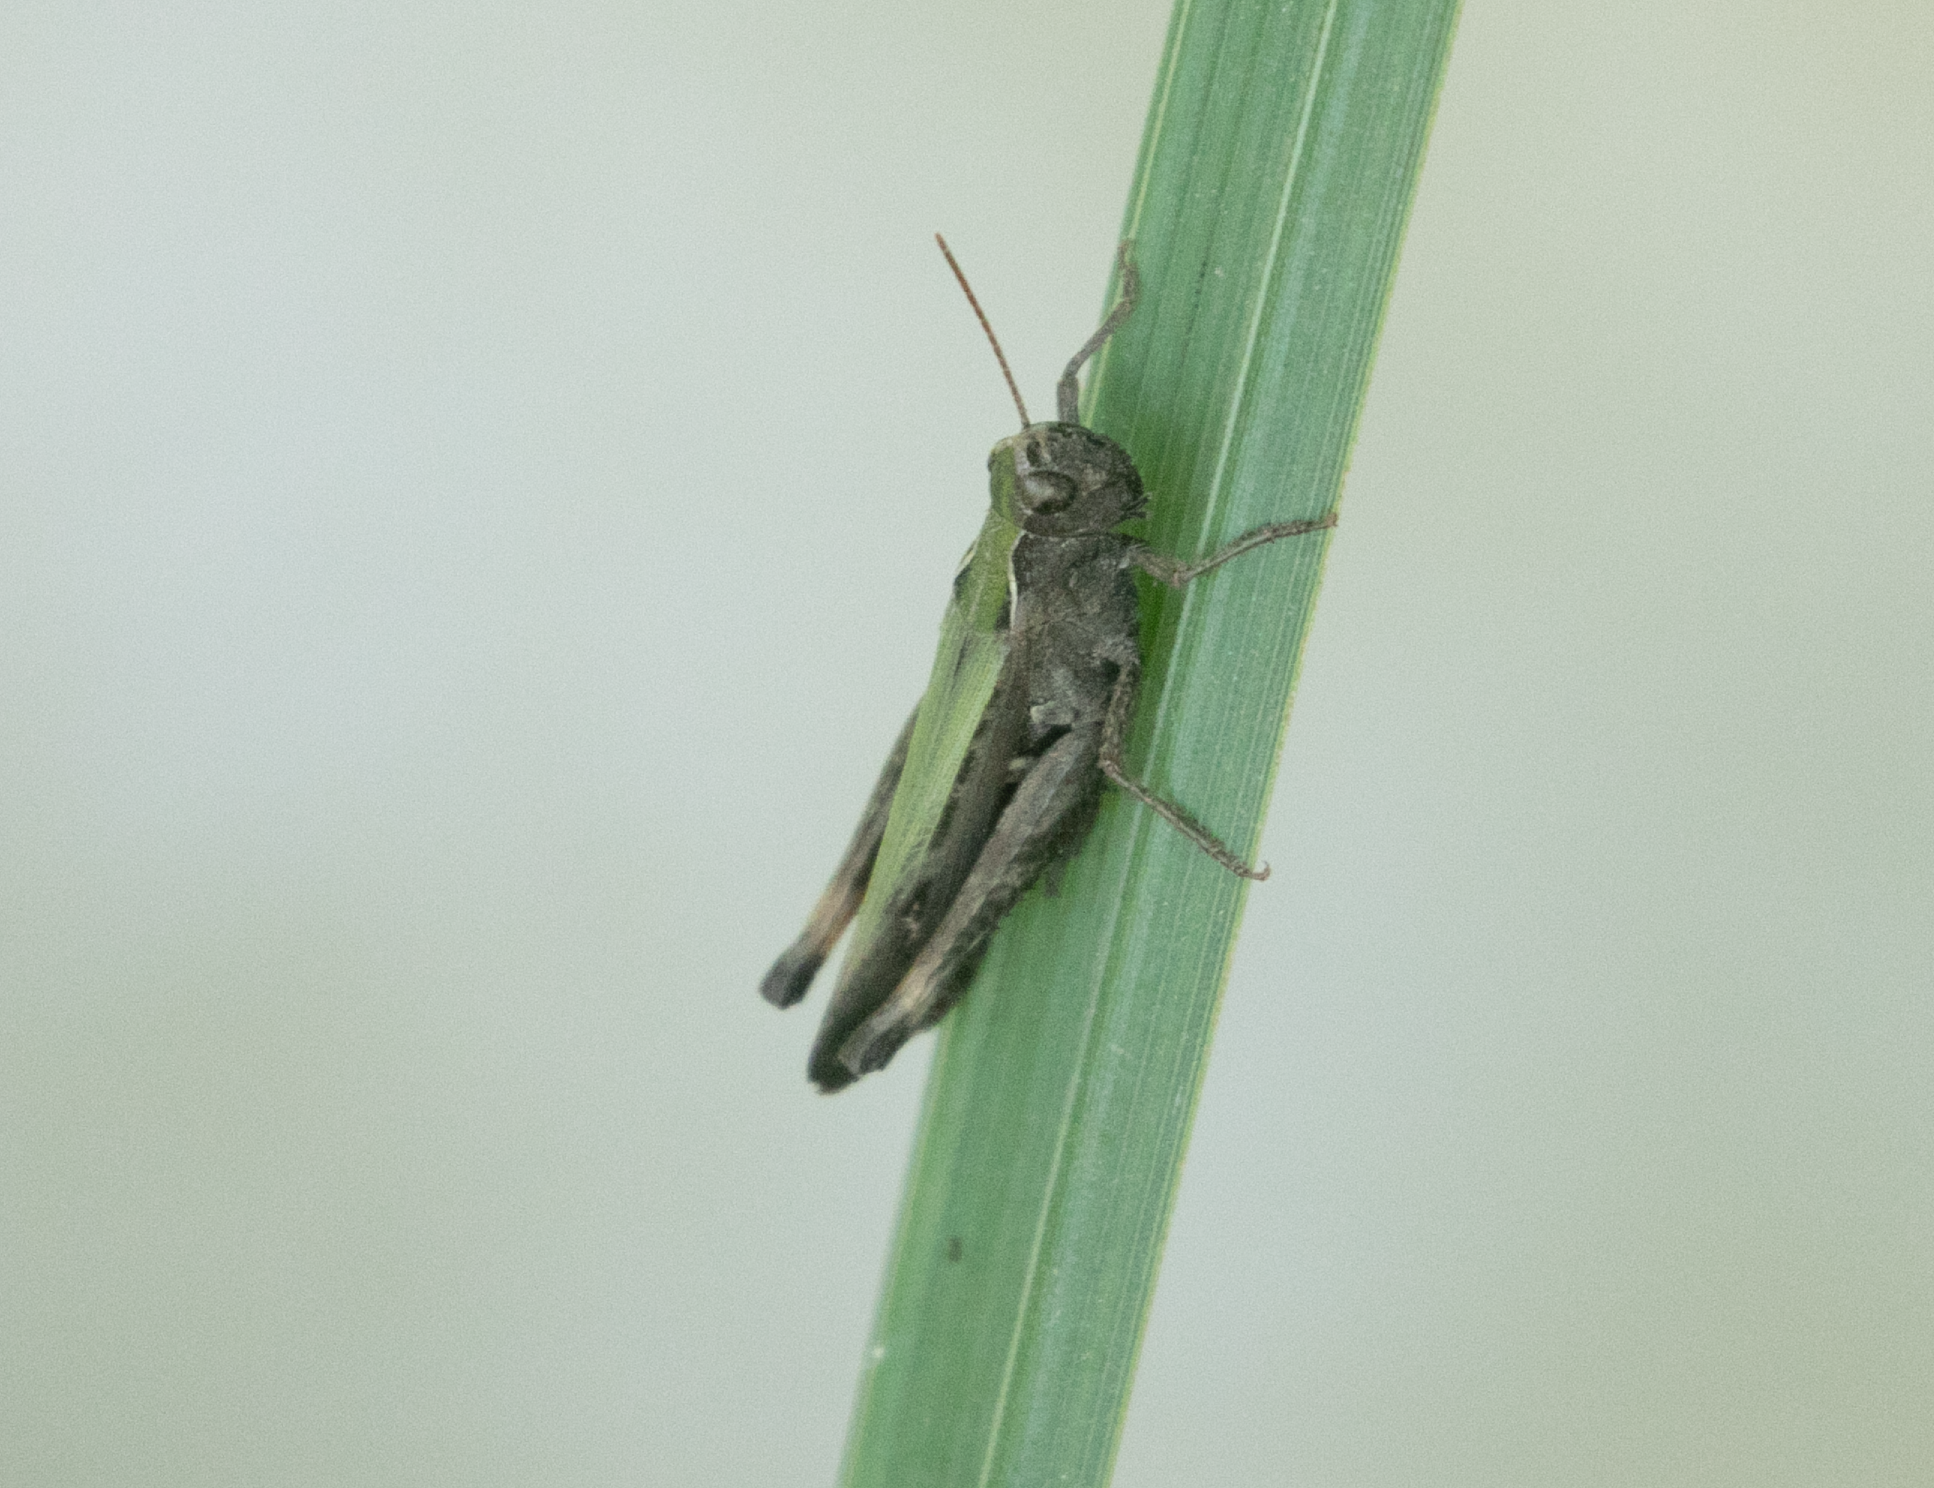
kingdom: Animalia
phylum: Arthropoda
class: Insecta
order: Orthoptera
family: Acrididae
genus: Omocestus
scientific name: Omocestus rufipes
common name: Woodland grasshopper
